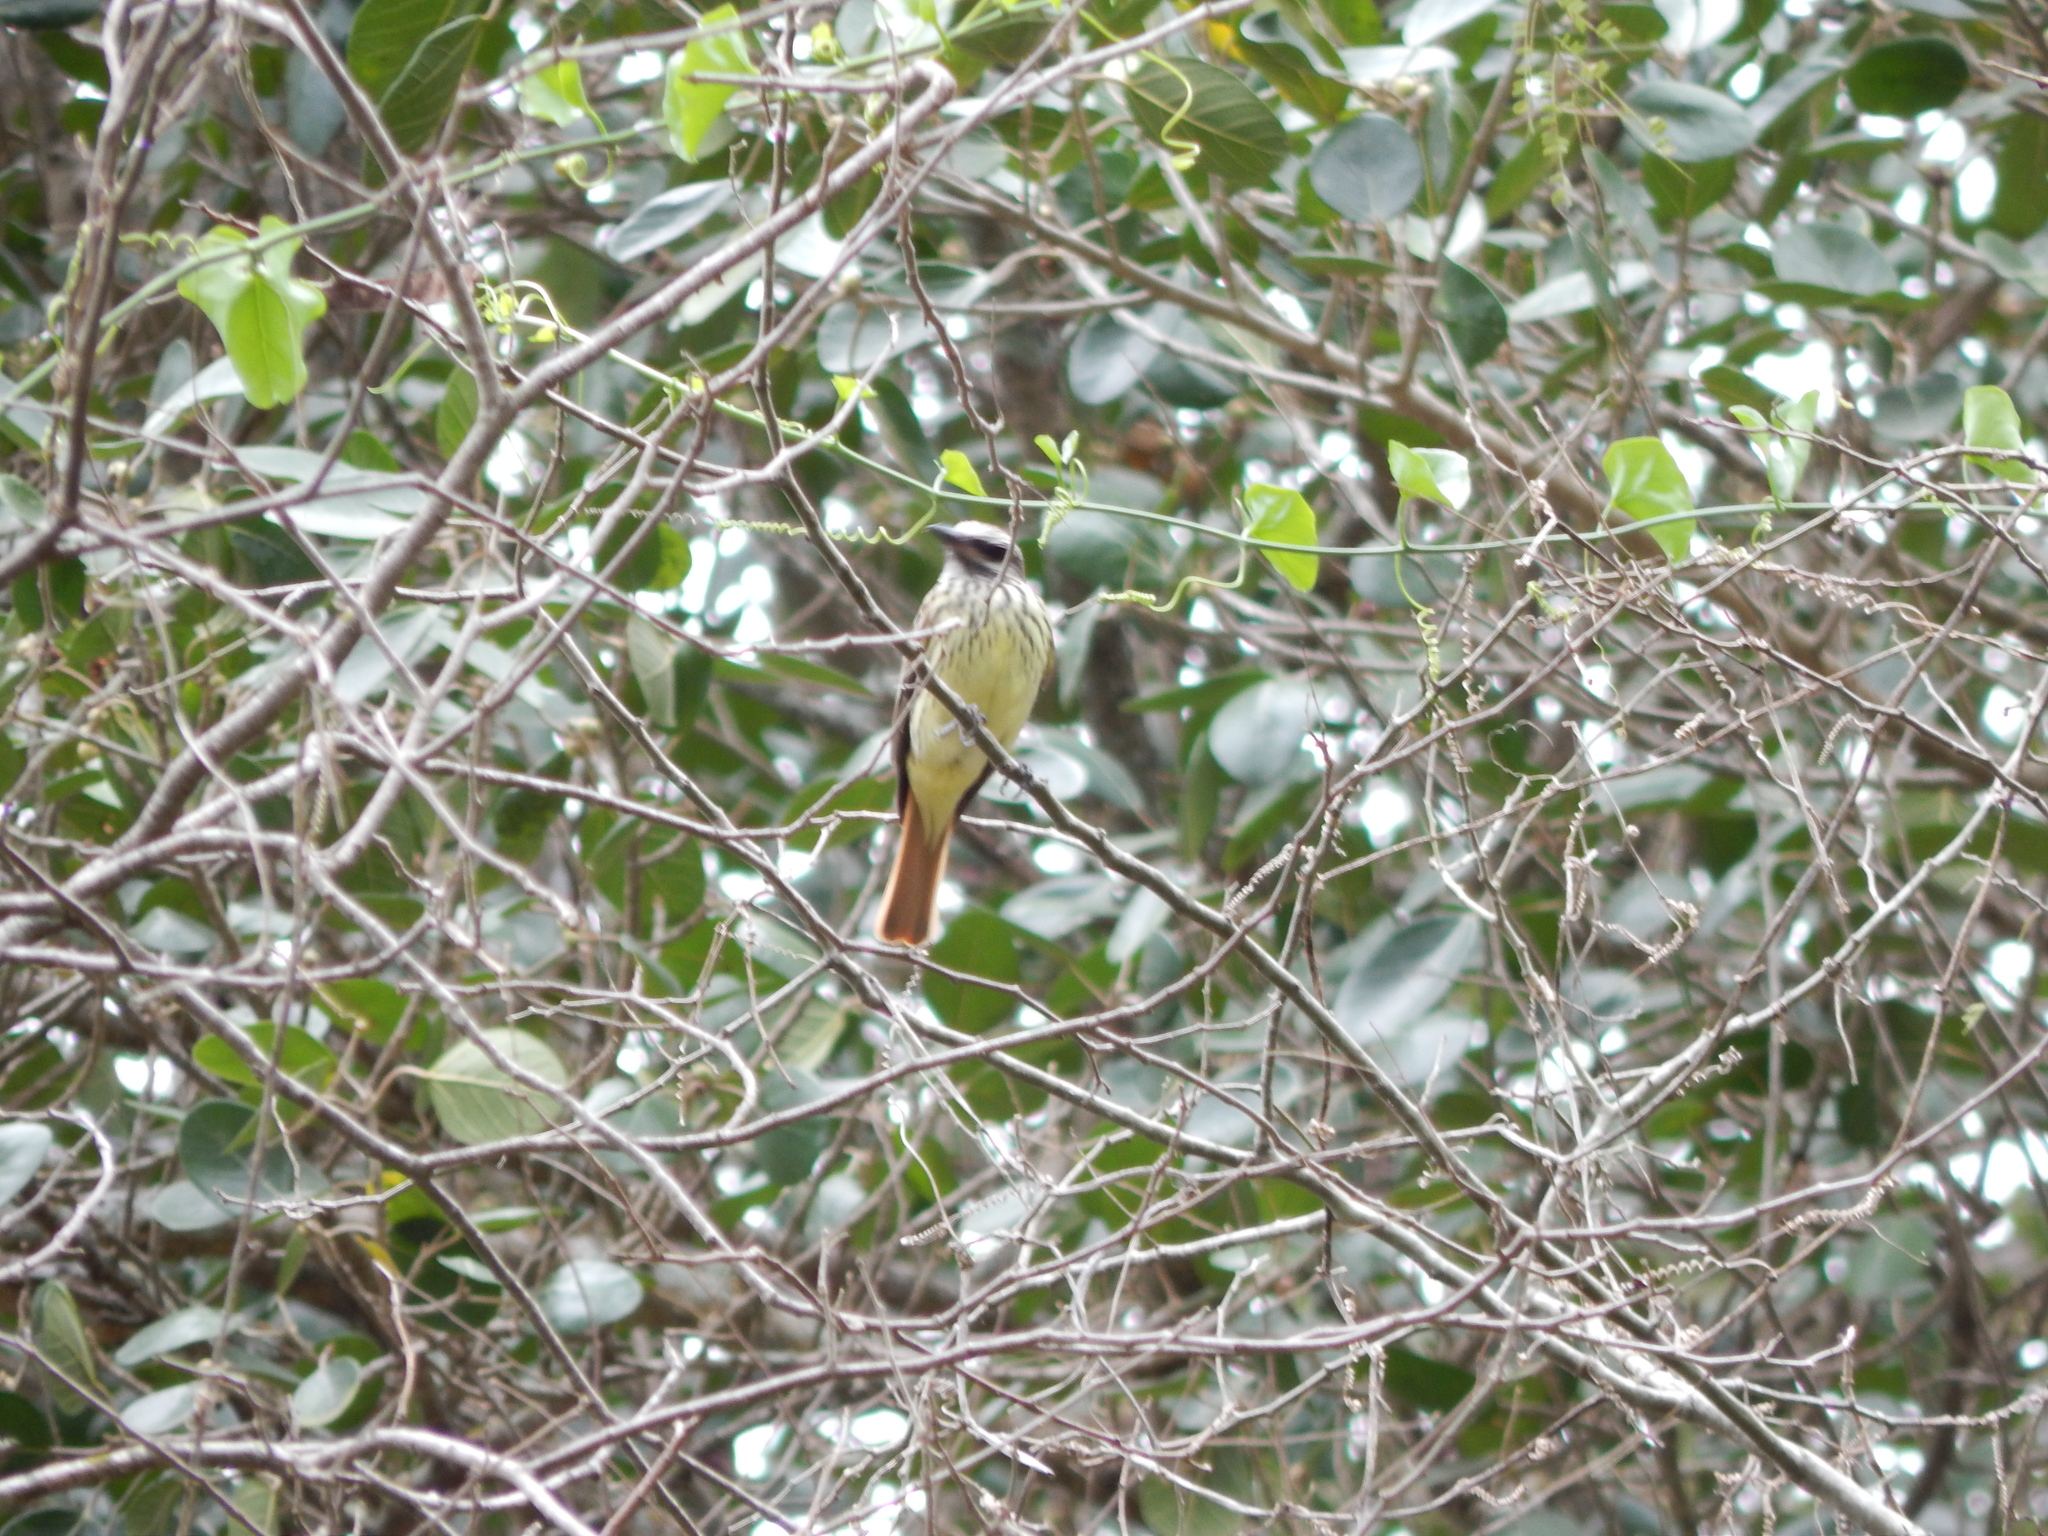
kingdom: Animalia
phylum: Chordata
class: Aves
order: Passeriformes
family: Tyrannidae
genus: Myiodynastes
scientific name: Myiodynastes luteiventris
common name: Sulphur-bellied flycatcher
